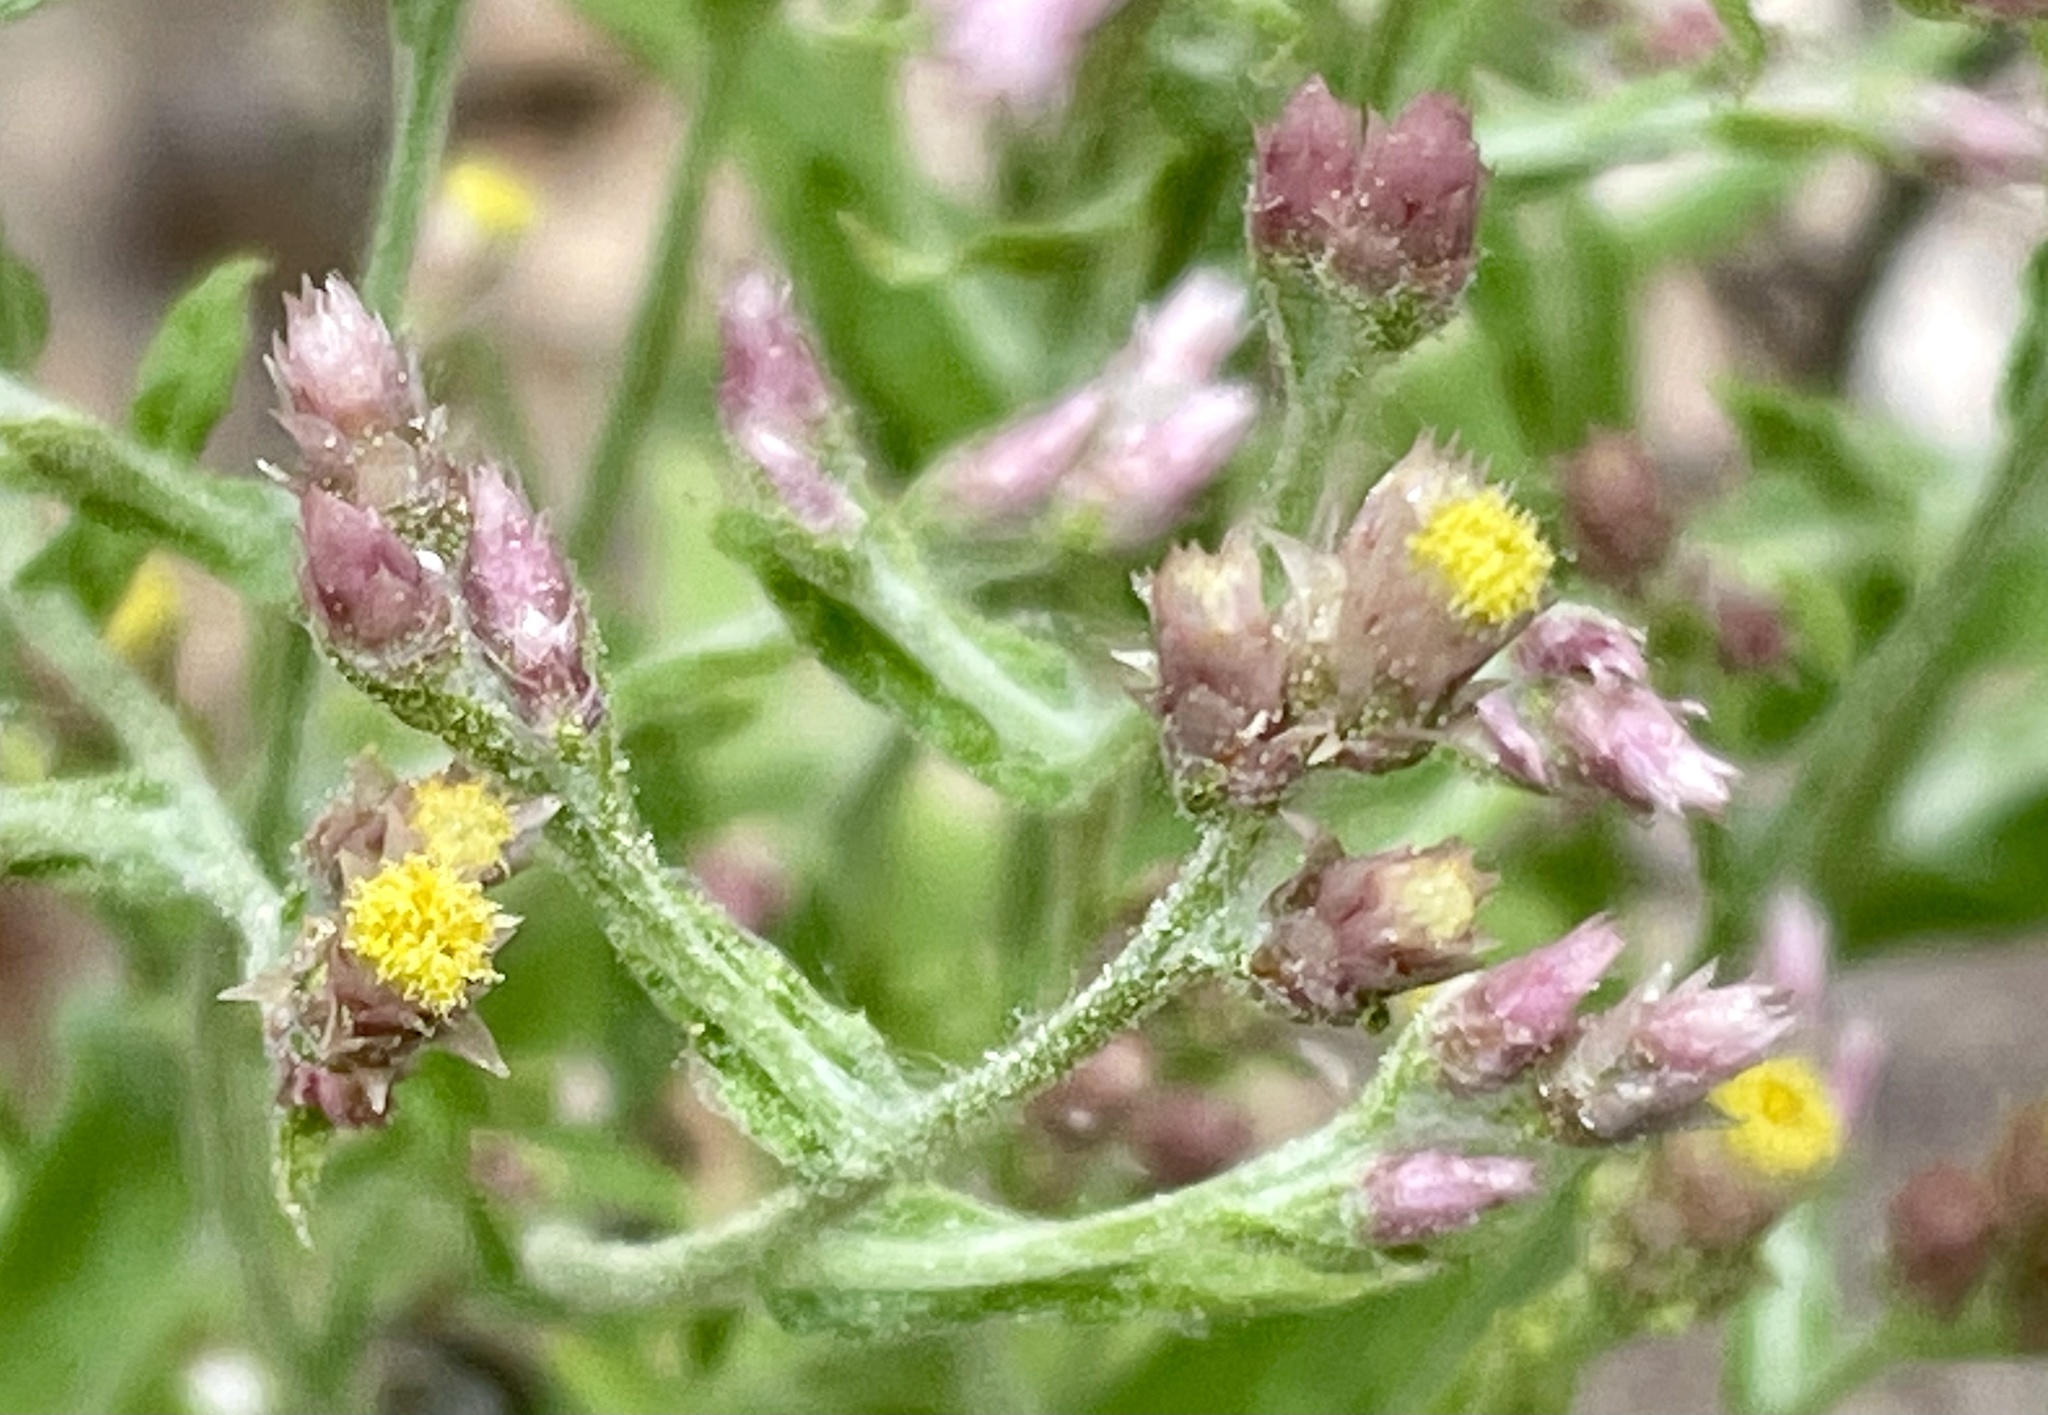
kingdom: Plantae
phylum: Tracheophyta
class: Magnoliopsida
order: Asterales
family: Asteraceae
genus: Pseudognaphalium
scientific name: Pseudognaphalium ramosissimum
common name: Pink rabbit-tobacco
